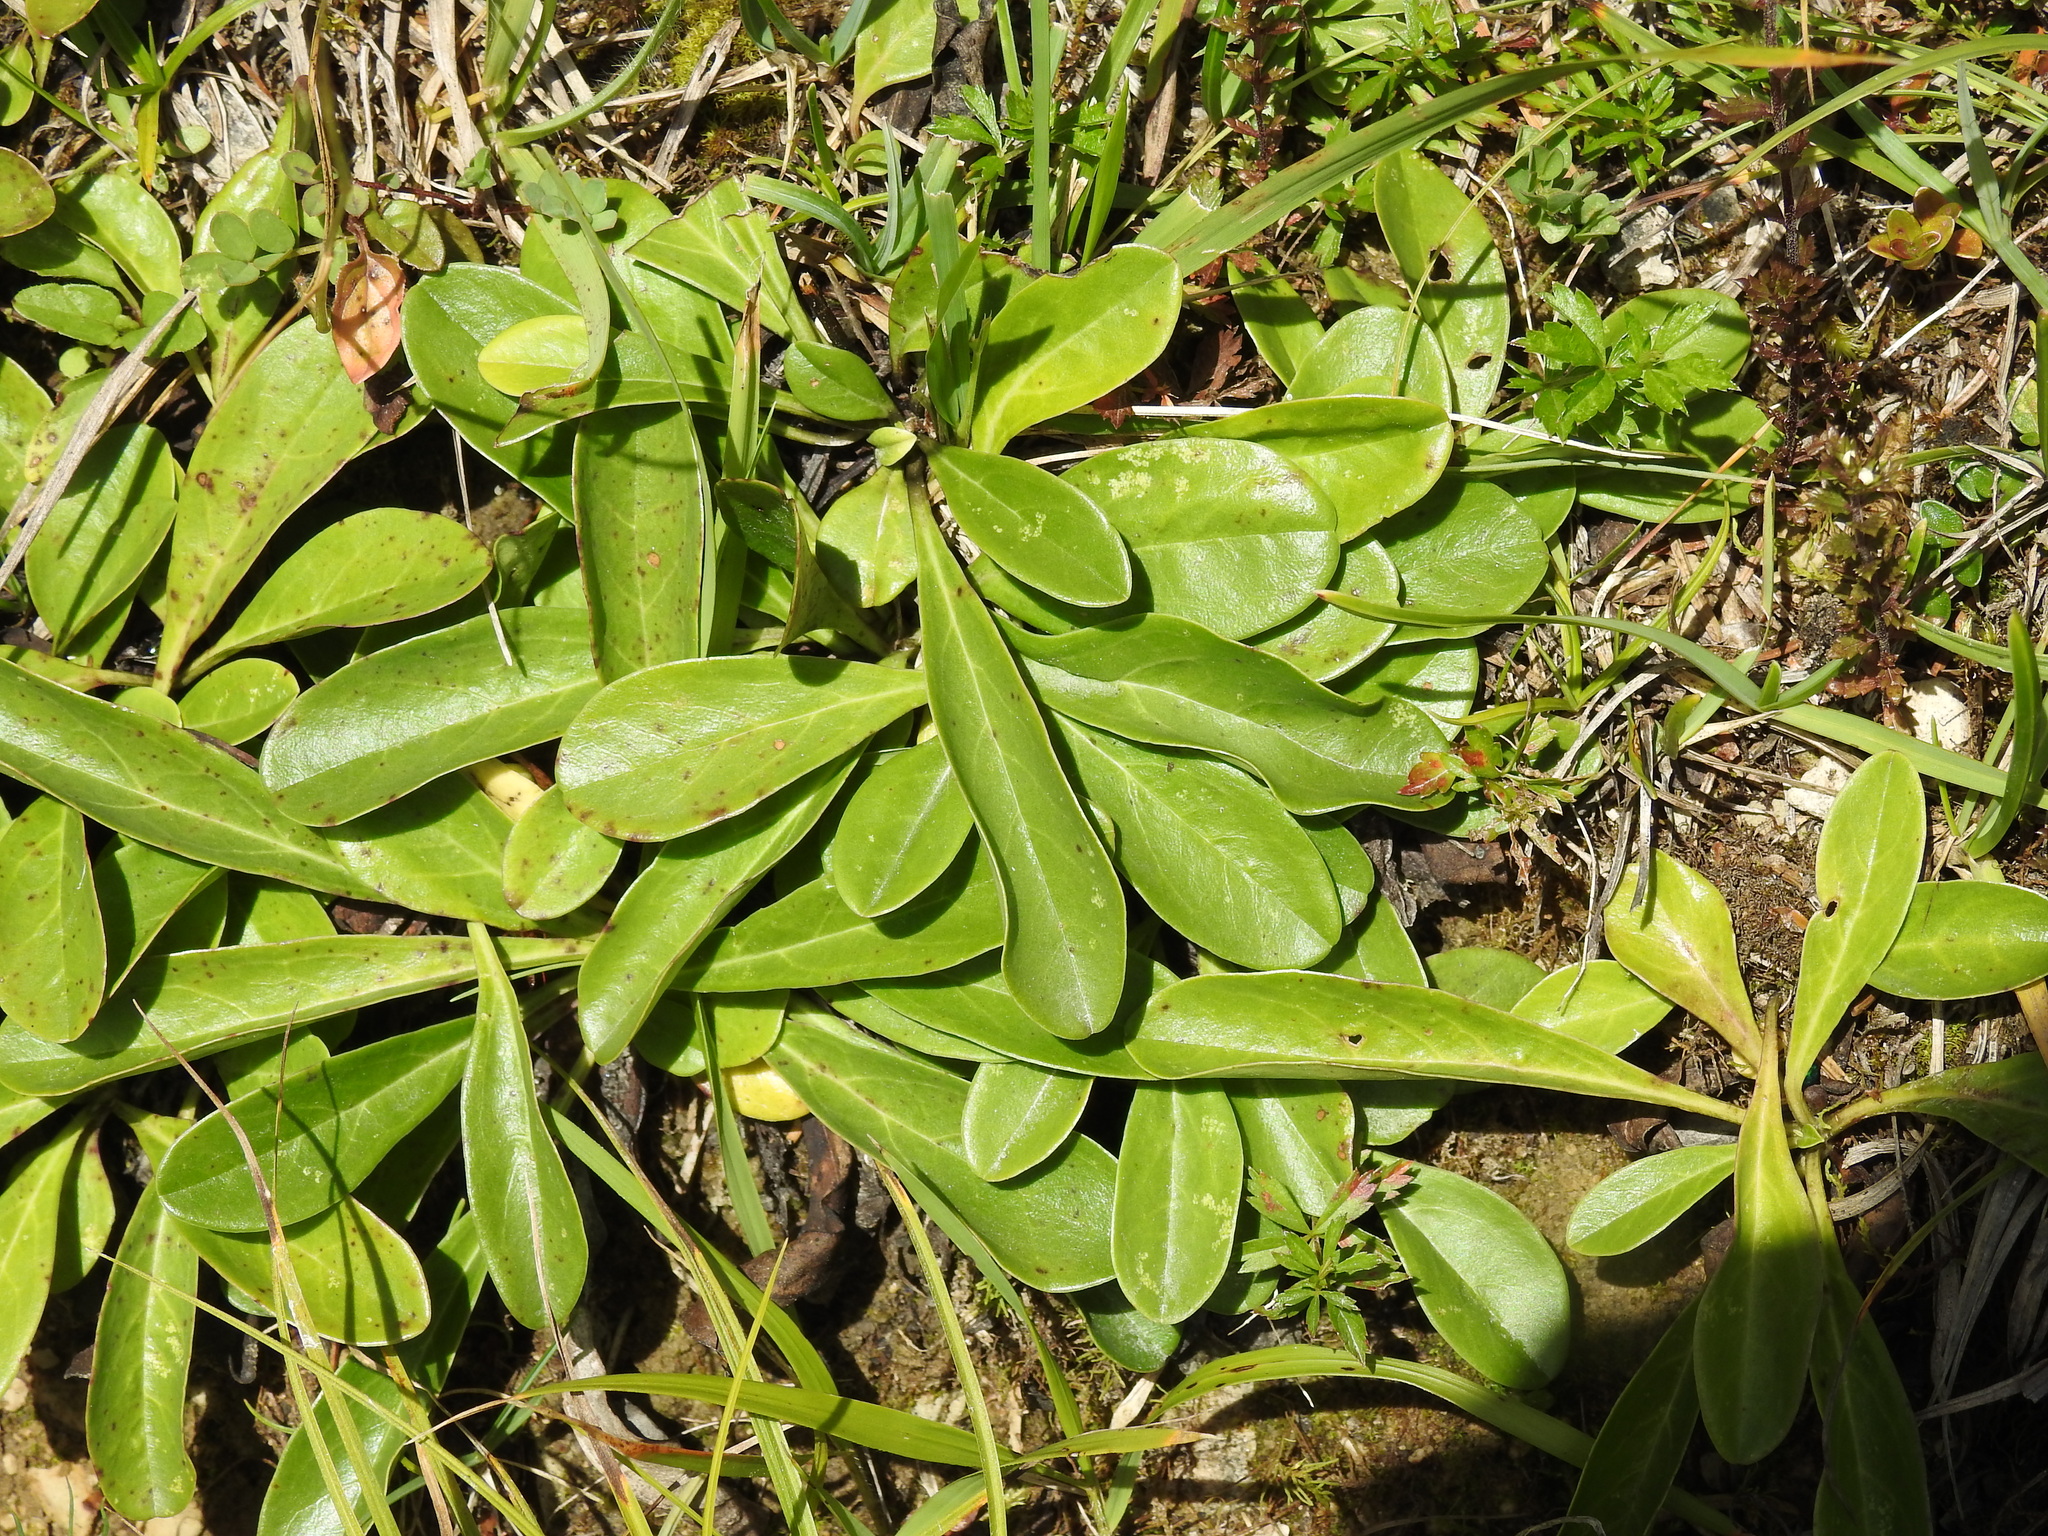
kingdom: Plantae
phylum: Tracheophyta
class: Magnoliopsida
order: Lamiales
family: Plantaginaceae
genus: Globularia
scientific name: Globularia nudicaulis
